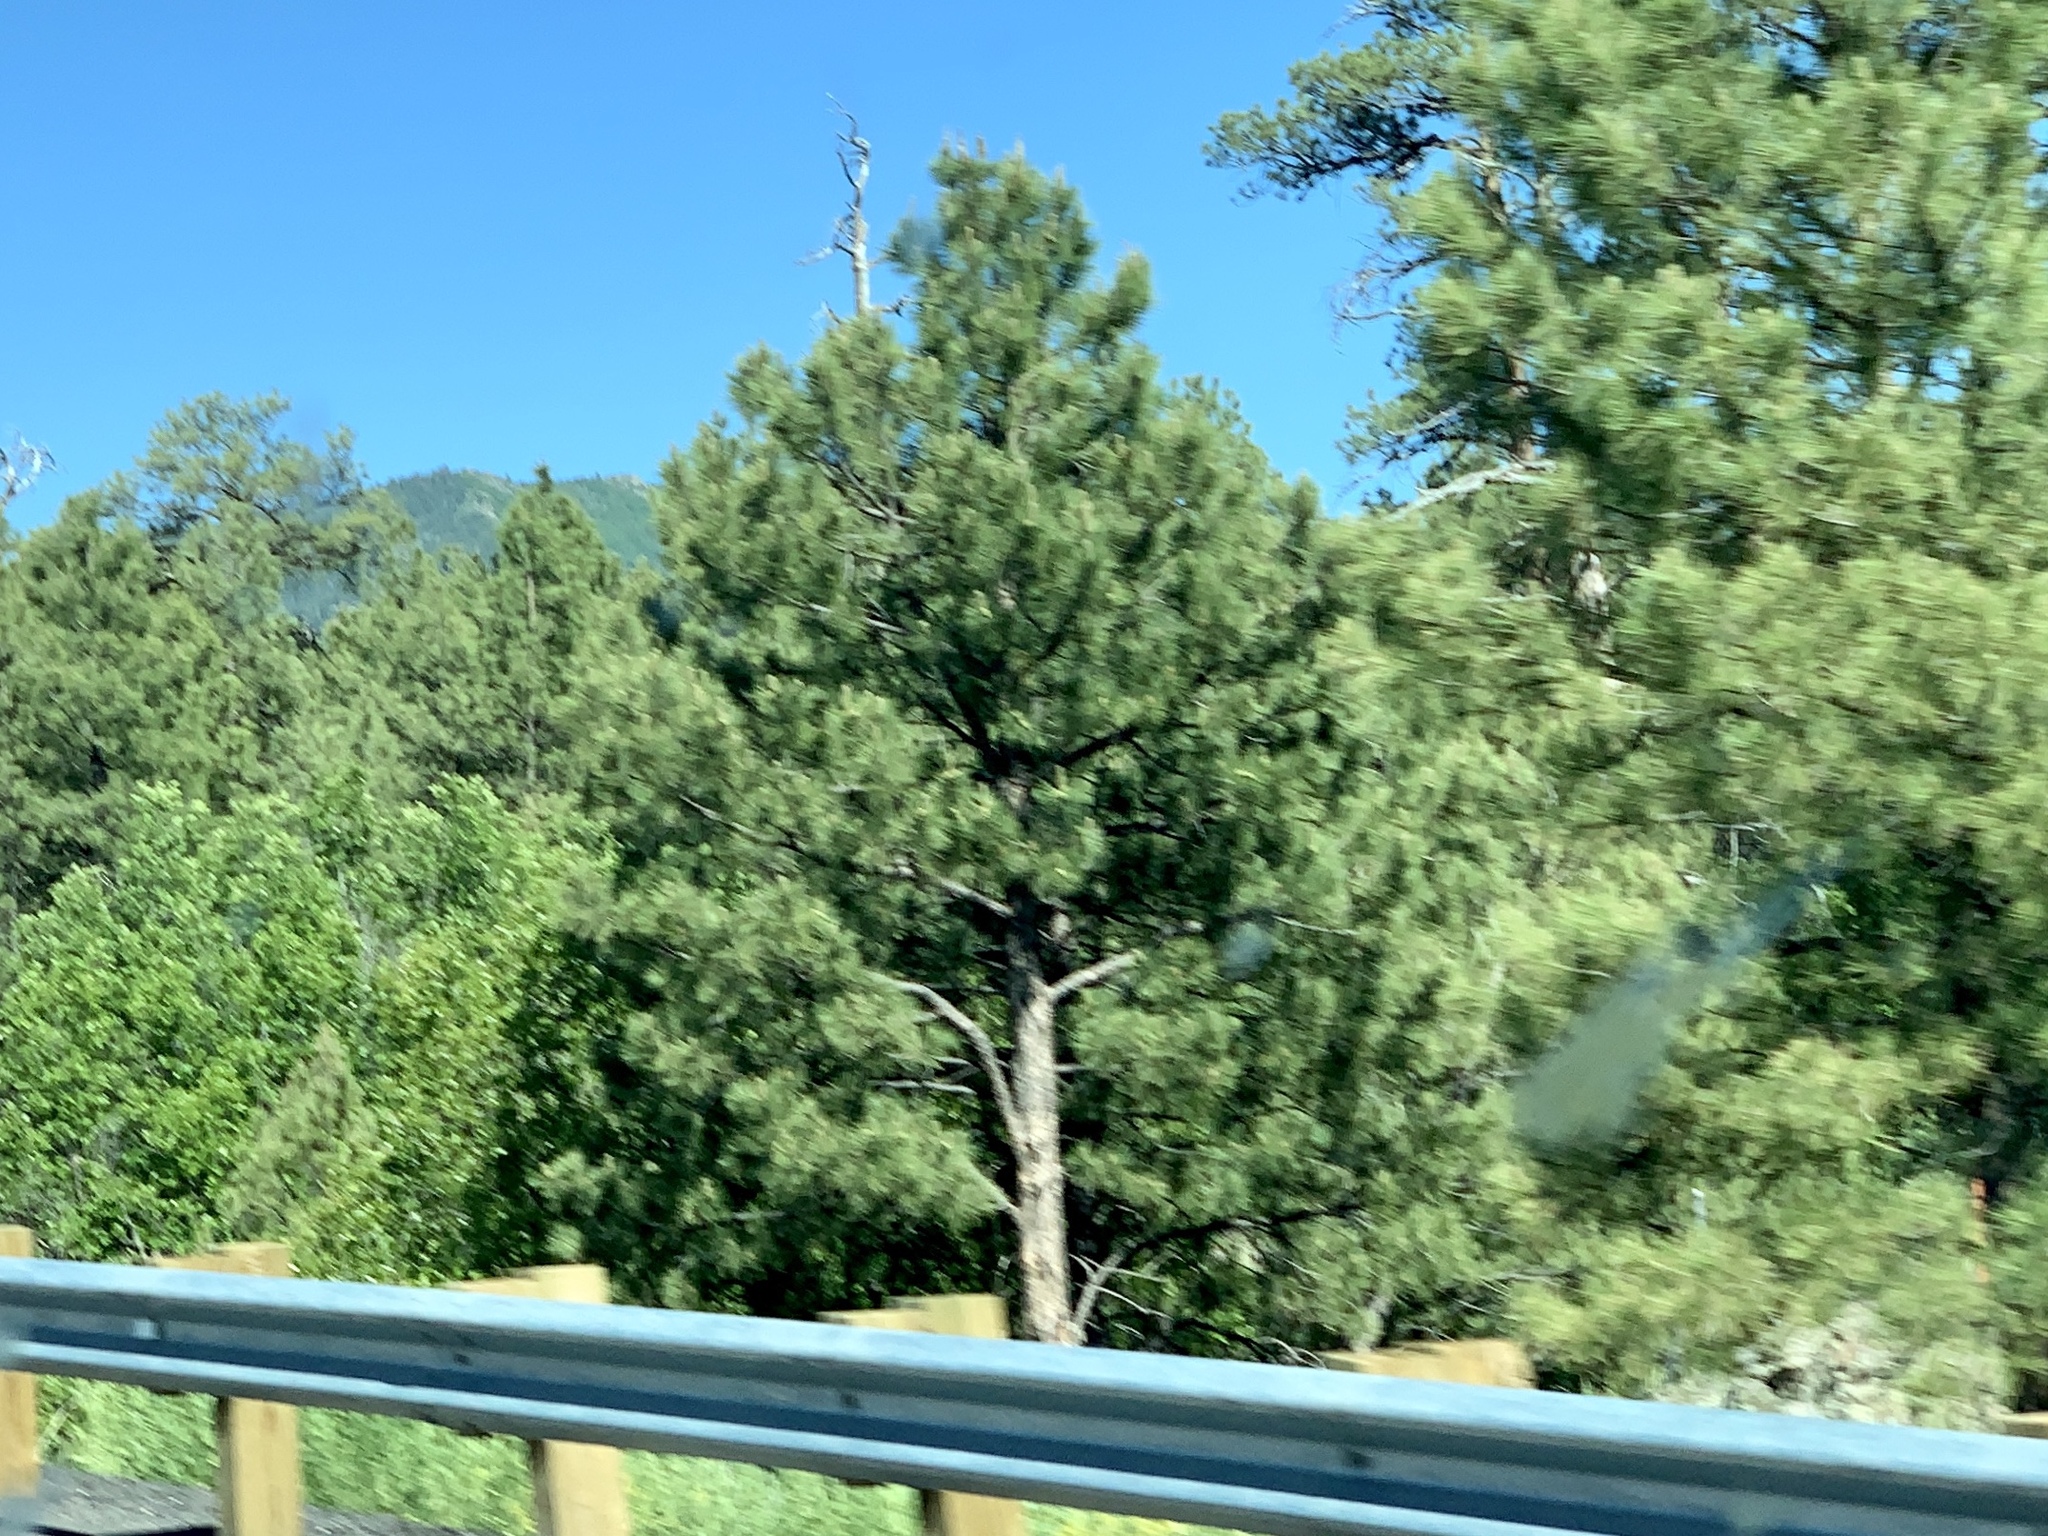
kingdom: Plantae
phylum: Tracheophyta
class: Pinopsida
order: Pinales
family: Pinaceae
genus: Pinus
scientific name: Pinus ponderosa
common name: Western yellow-pine
